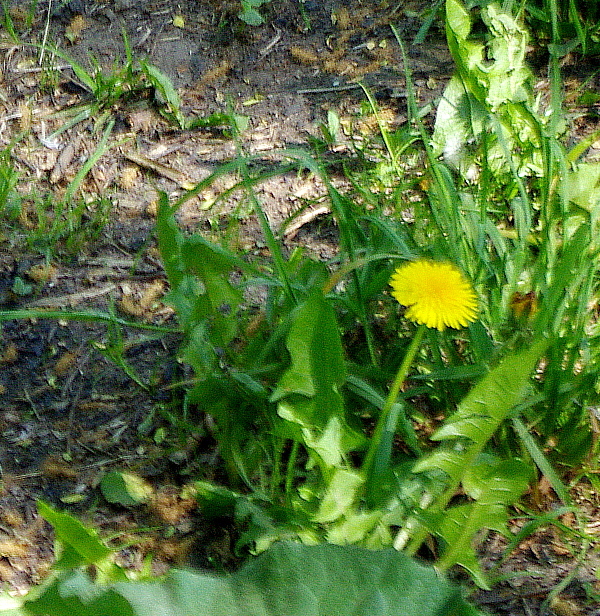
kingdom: Plantae
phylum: Tracheophyta
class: Magnoliopsida
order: Asterales
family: Asteraceae
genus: Taraxacum
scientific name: Taraxacum officinale
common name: Common dandelion
